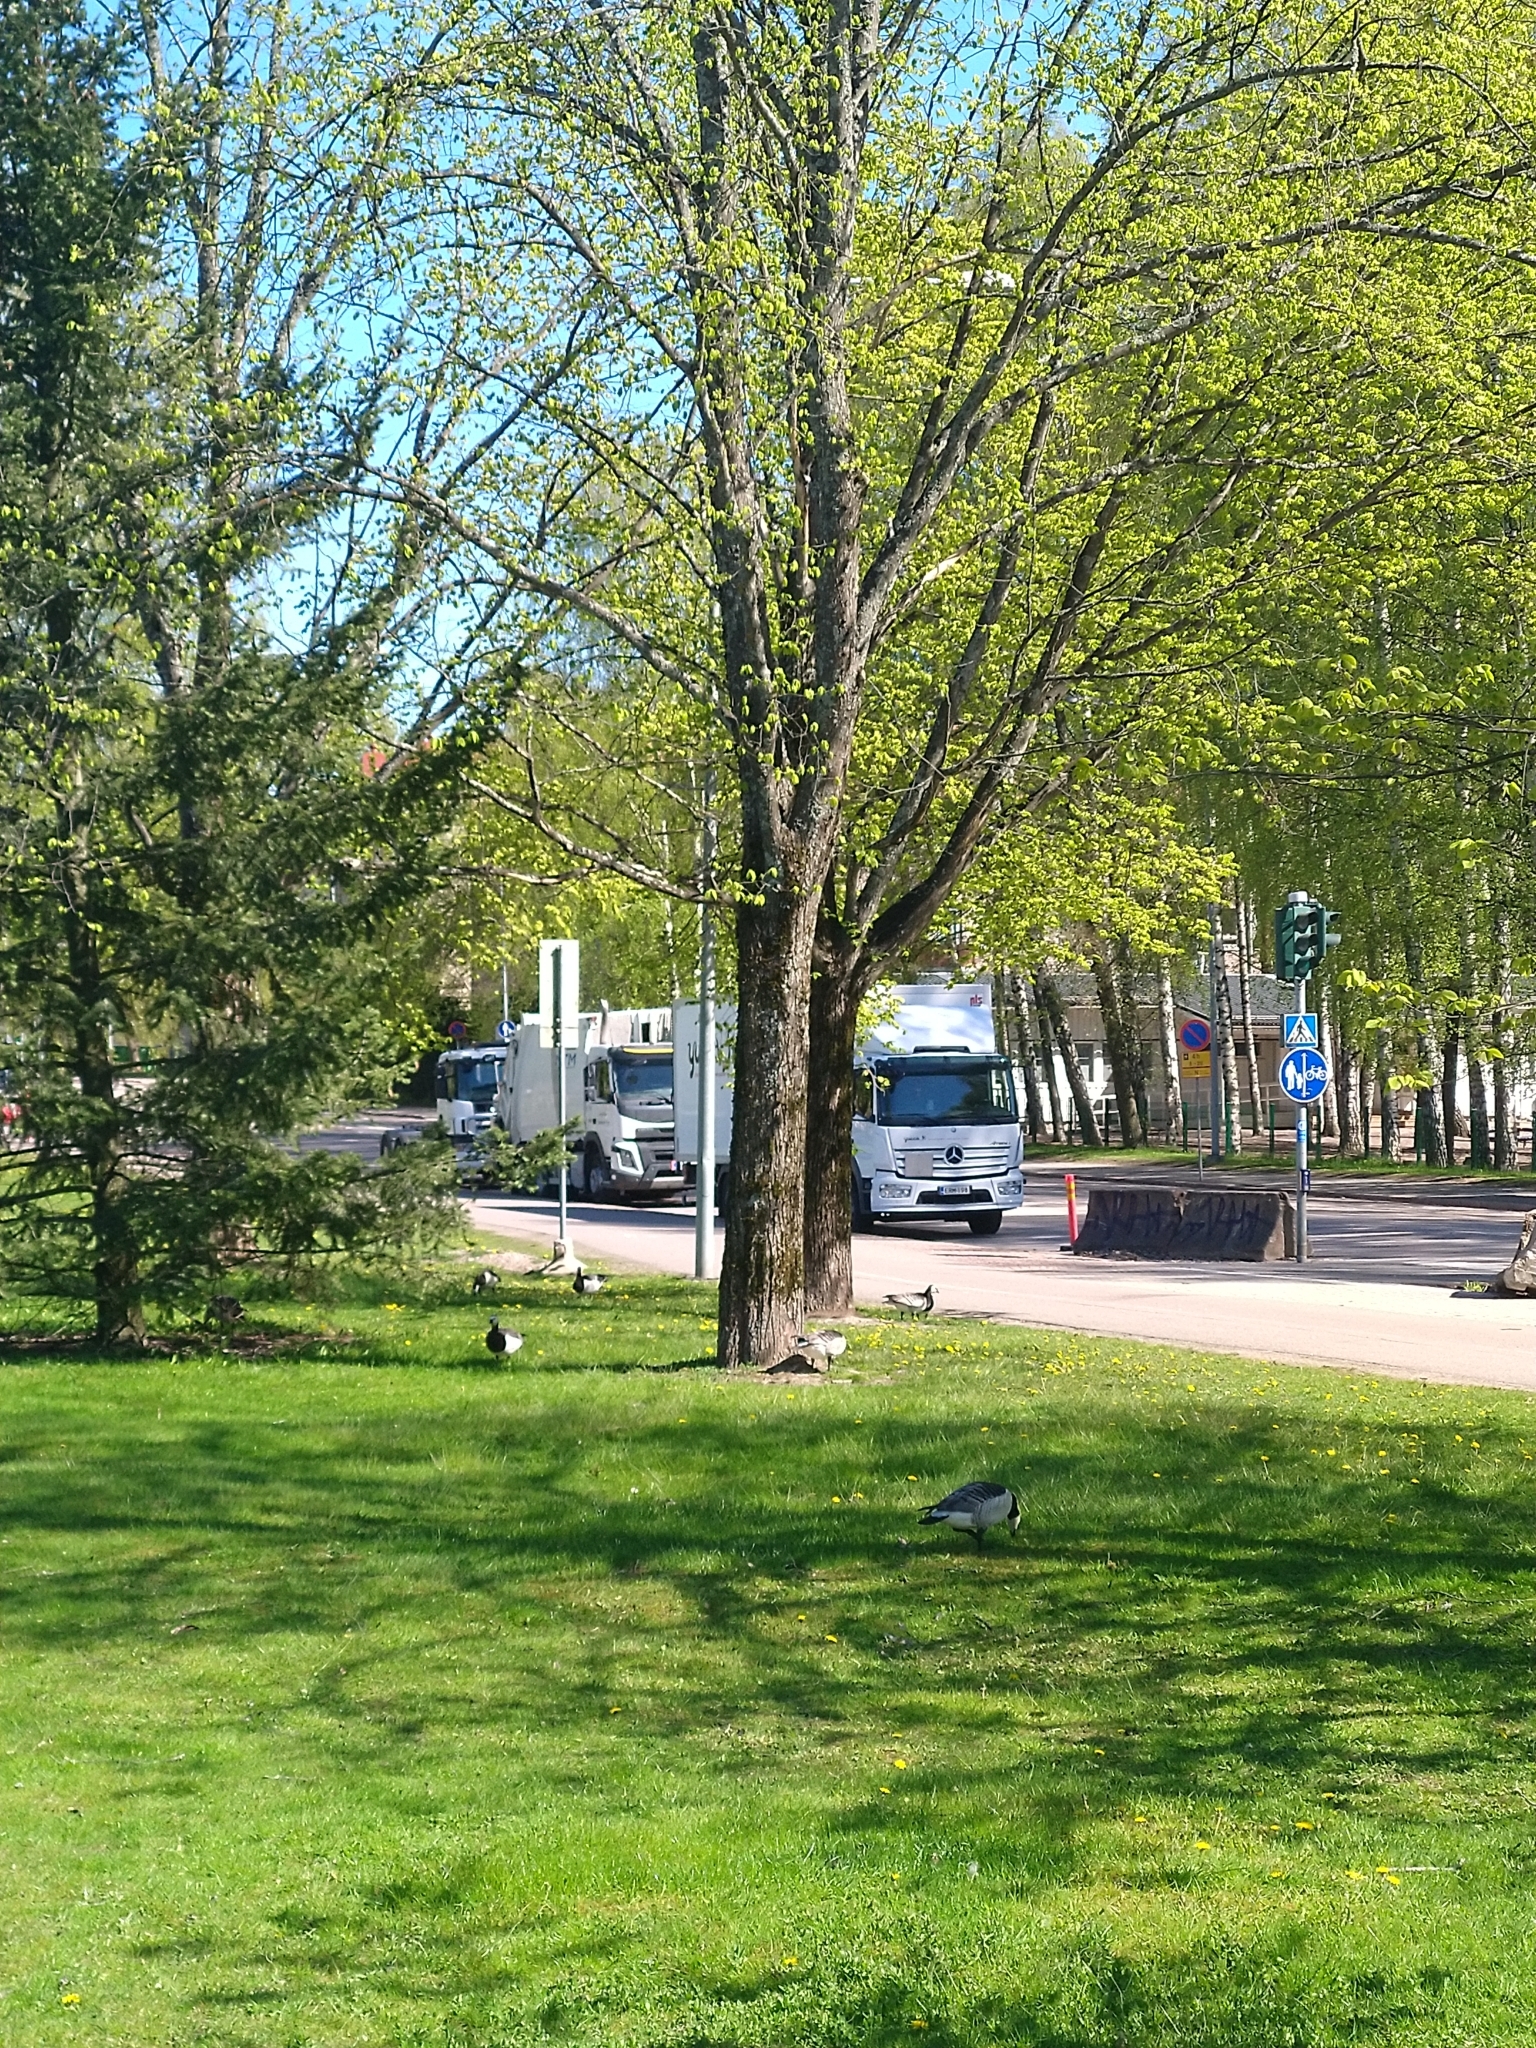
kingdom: Animalia
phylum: Chordata
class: Aves
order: Anseriformes
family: Anatidae
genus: Branta
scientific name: Branta leucopsis
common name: Barnacle goose
